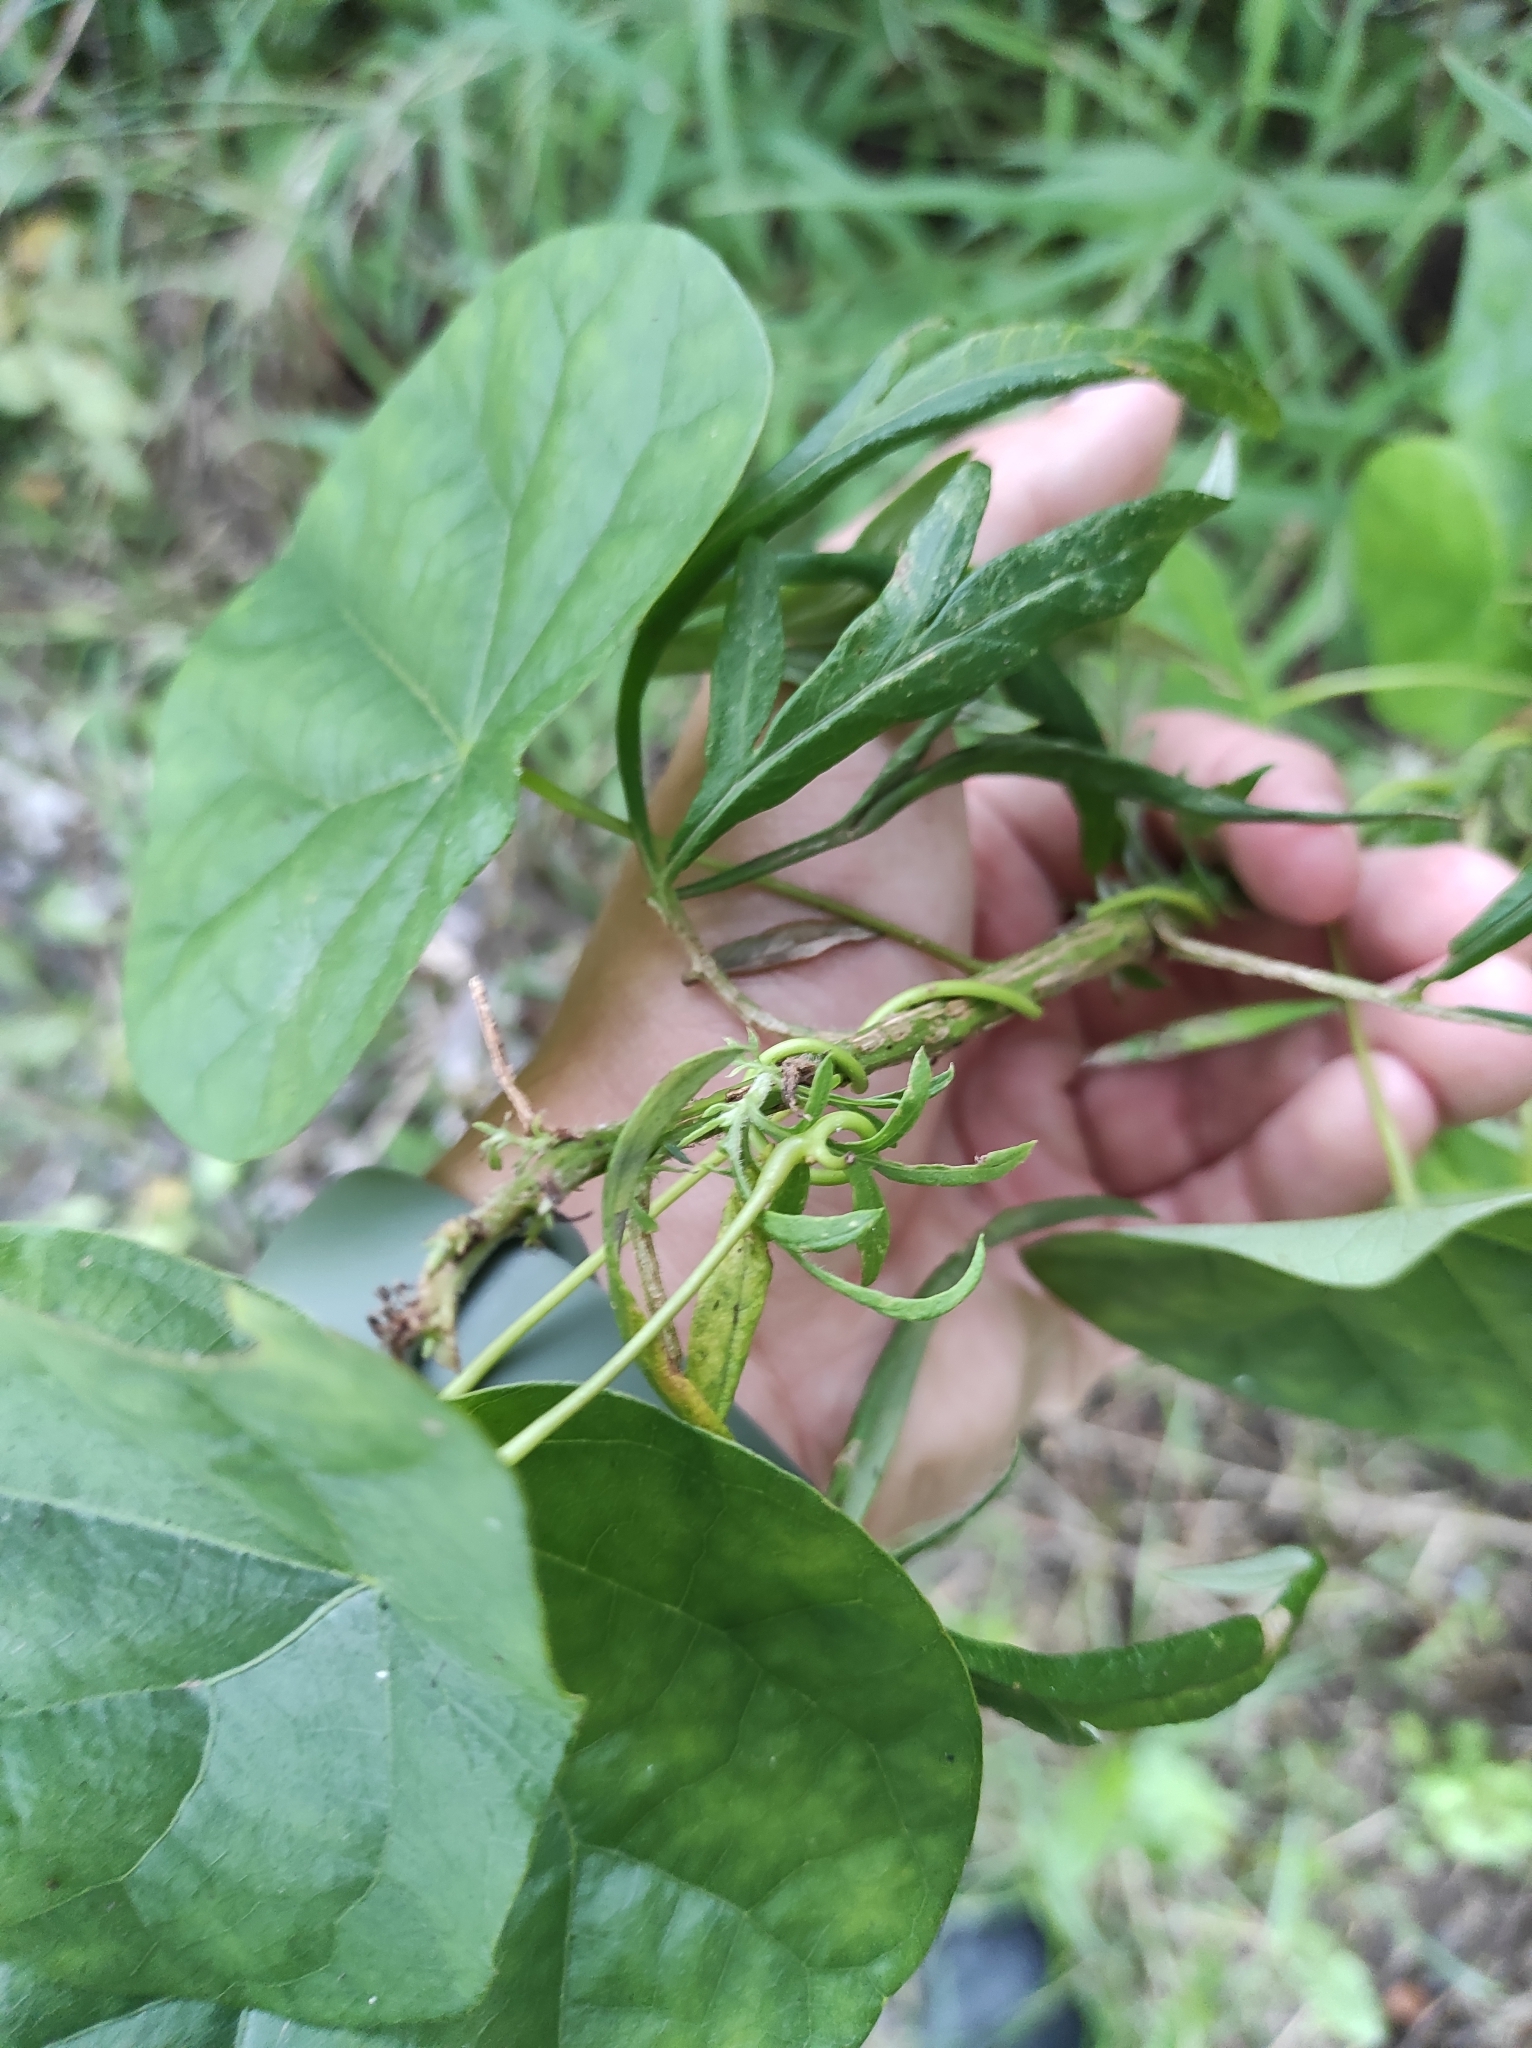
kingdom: Plantae
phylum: Tracheophyta
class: Magnoliopsida
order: Ranunculales
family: Menispermaceae
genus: Menispermum
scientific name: Menispermum dauricum
